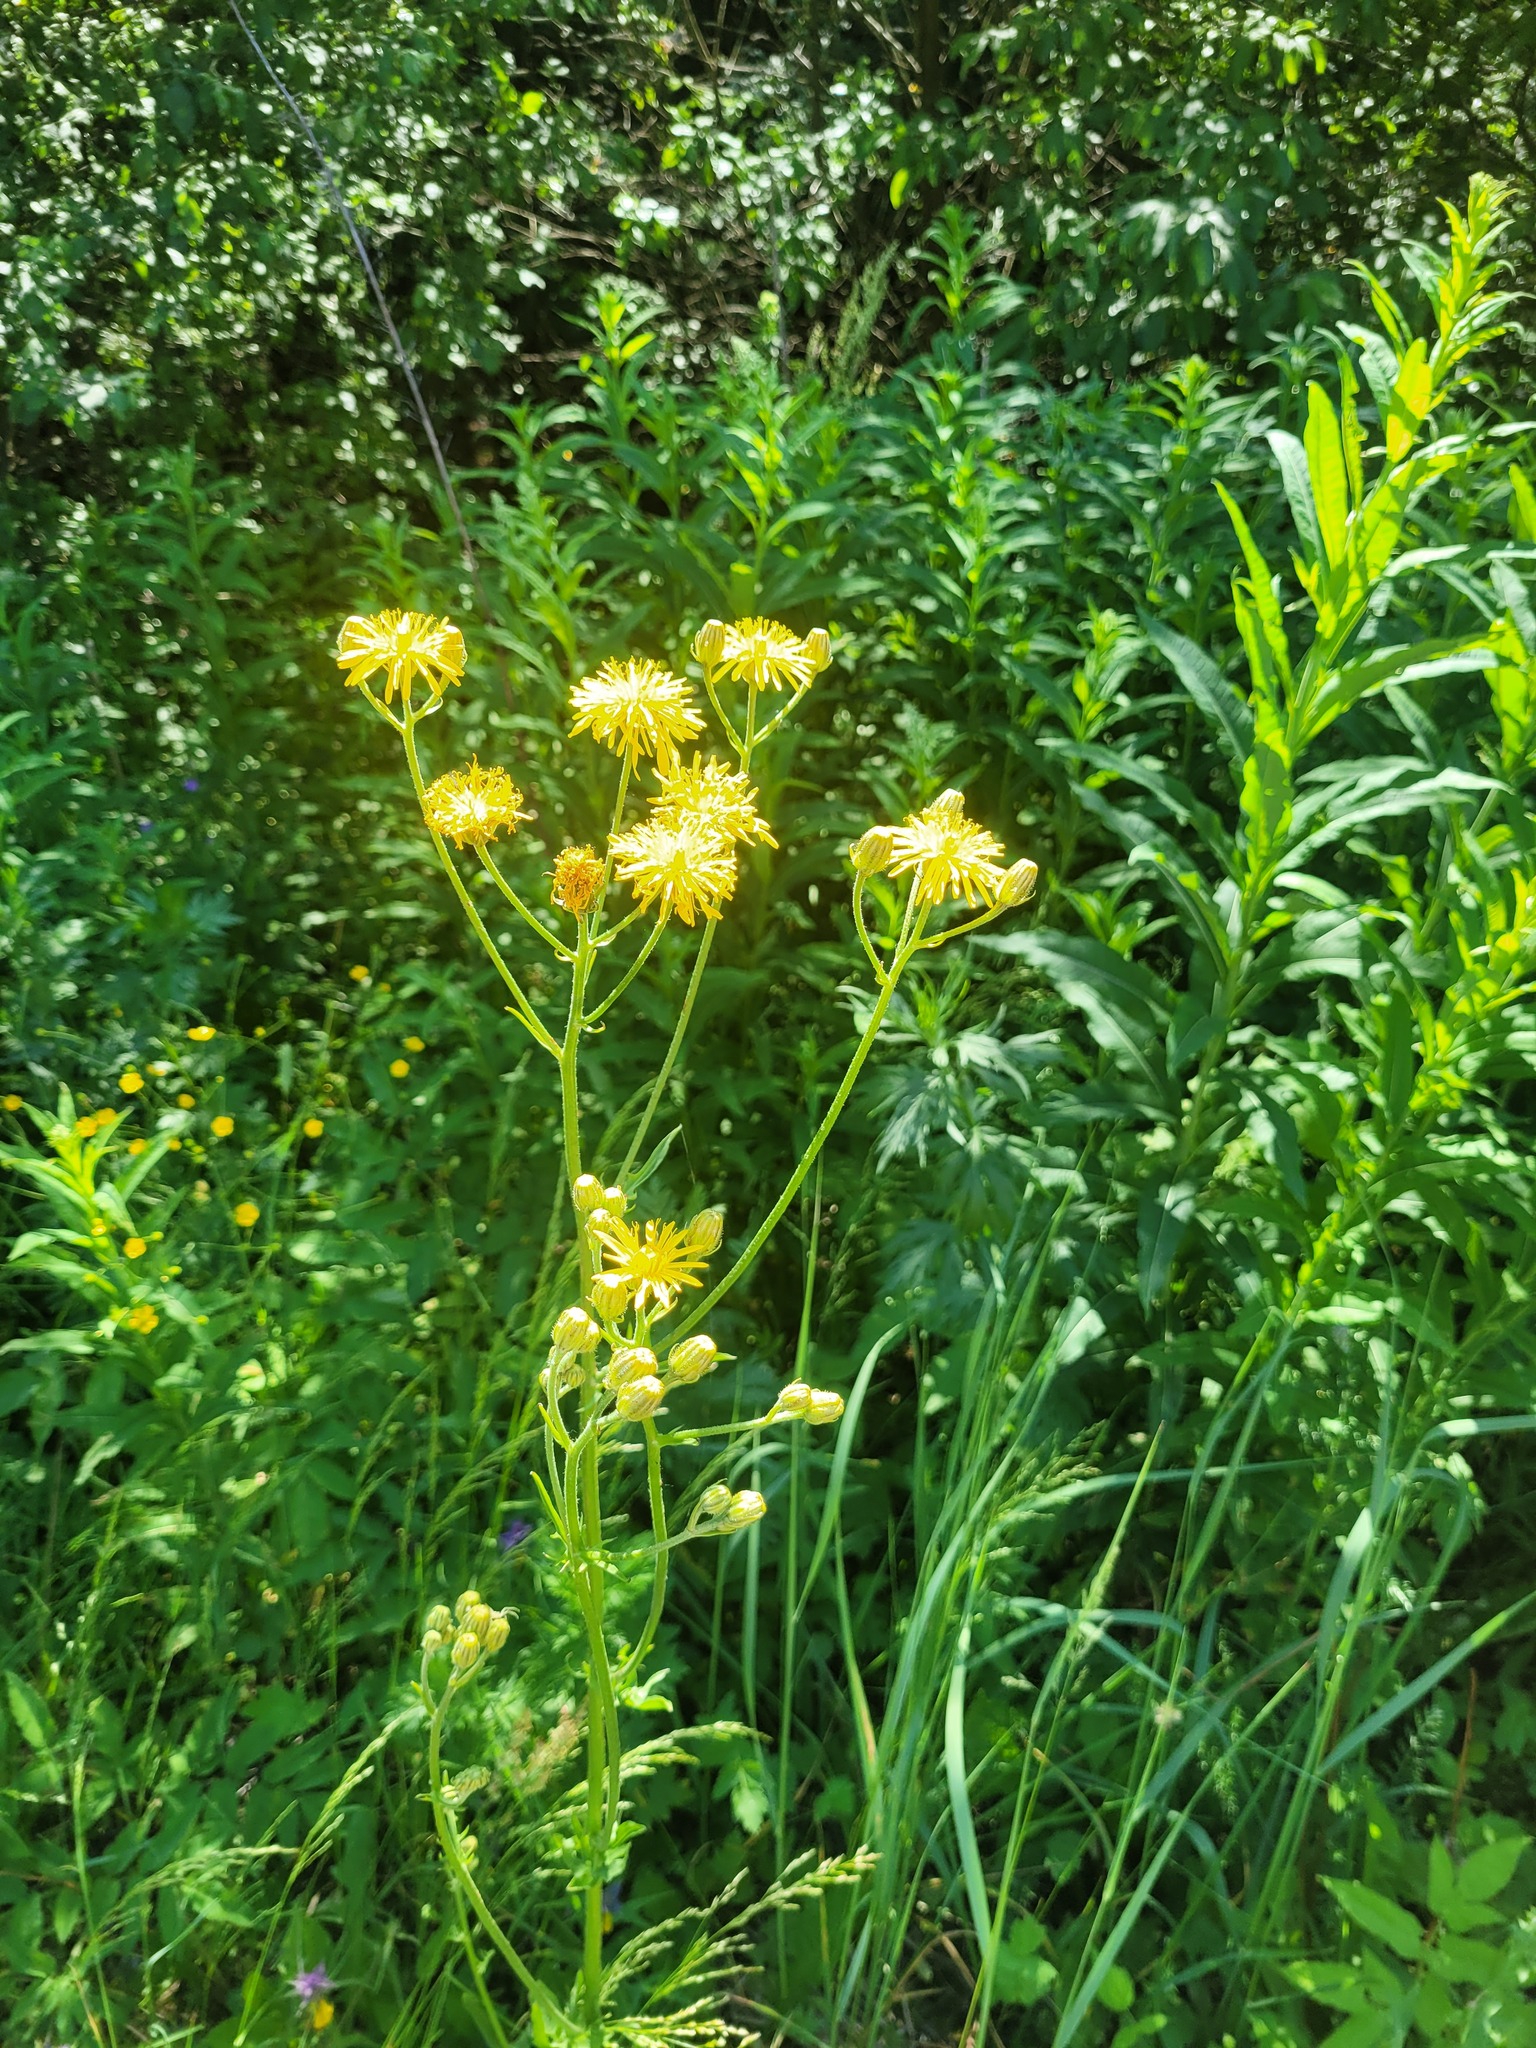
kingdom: Plantae
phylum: Tracheophyta
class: Magnoliopsida
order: Asterales
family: Asteraceae
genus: Crepis
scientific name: Crepis biennis
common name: Rough hawk's-beard
